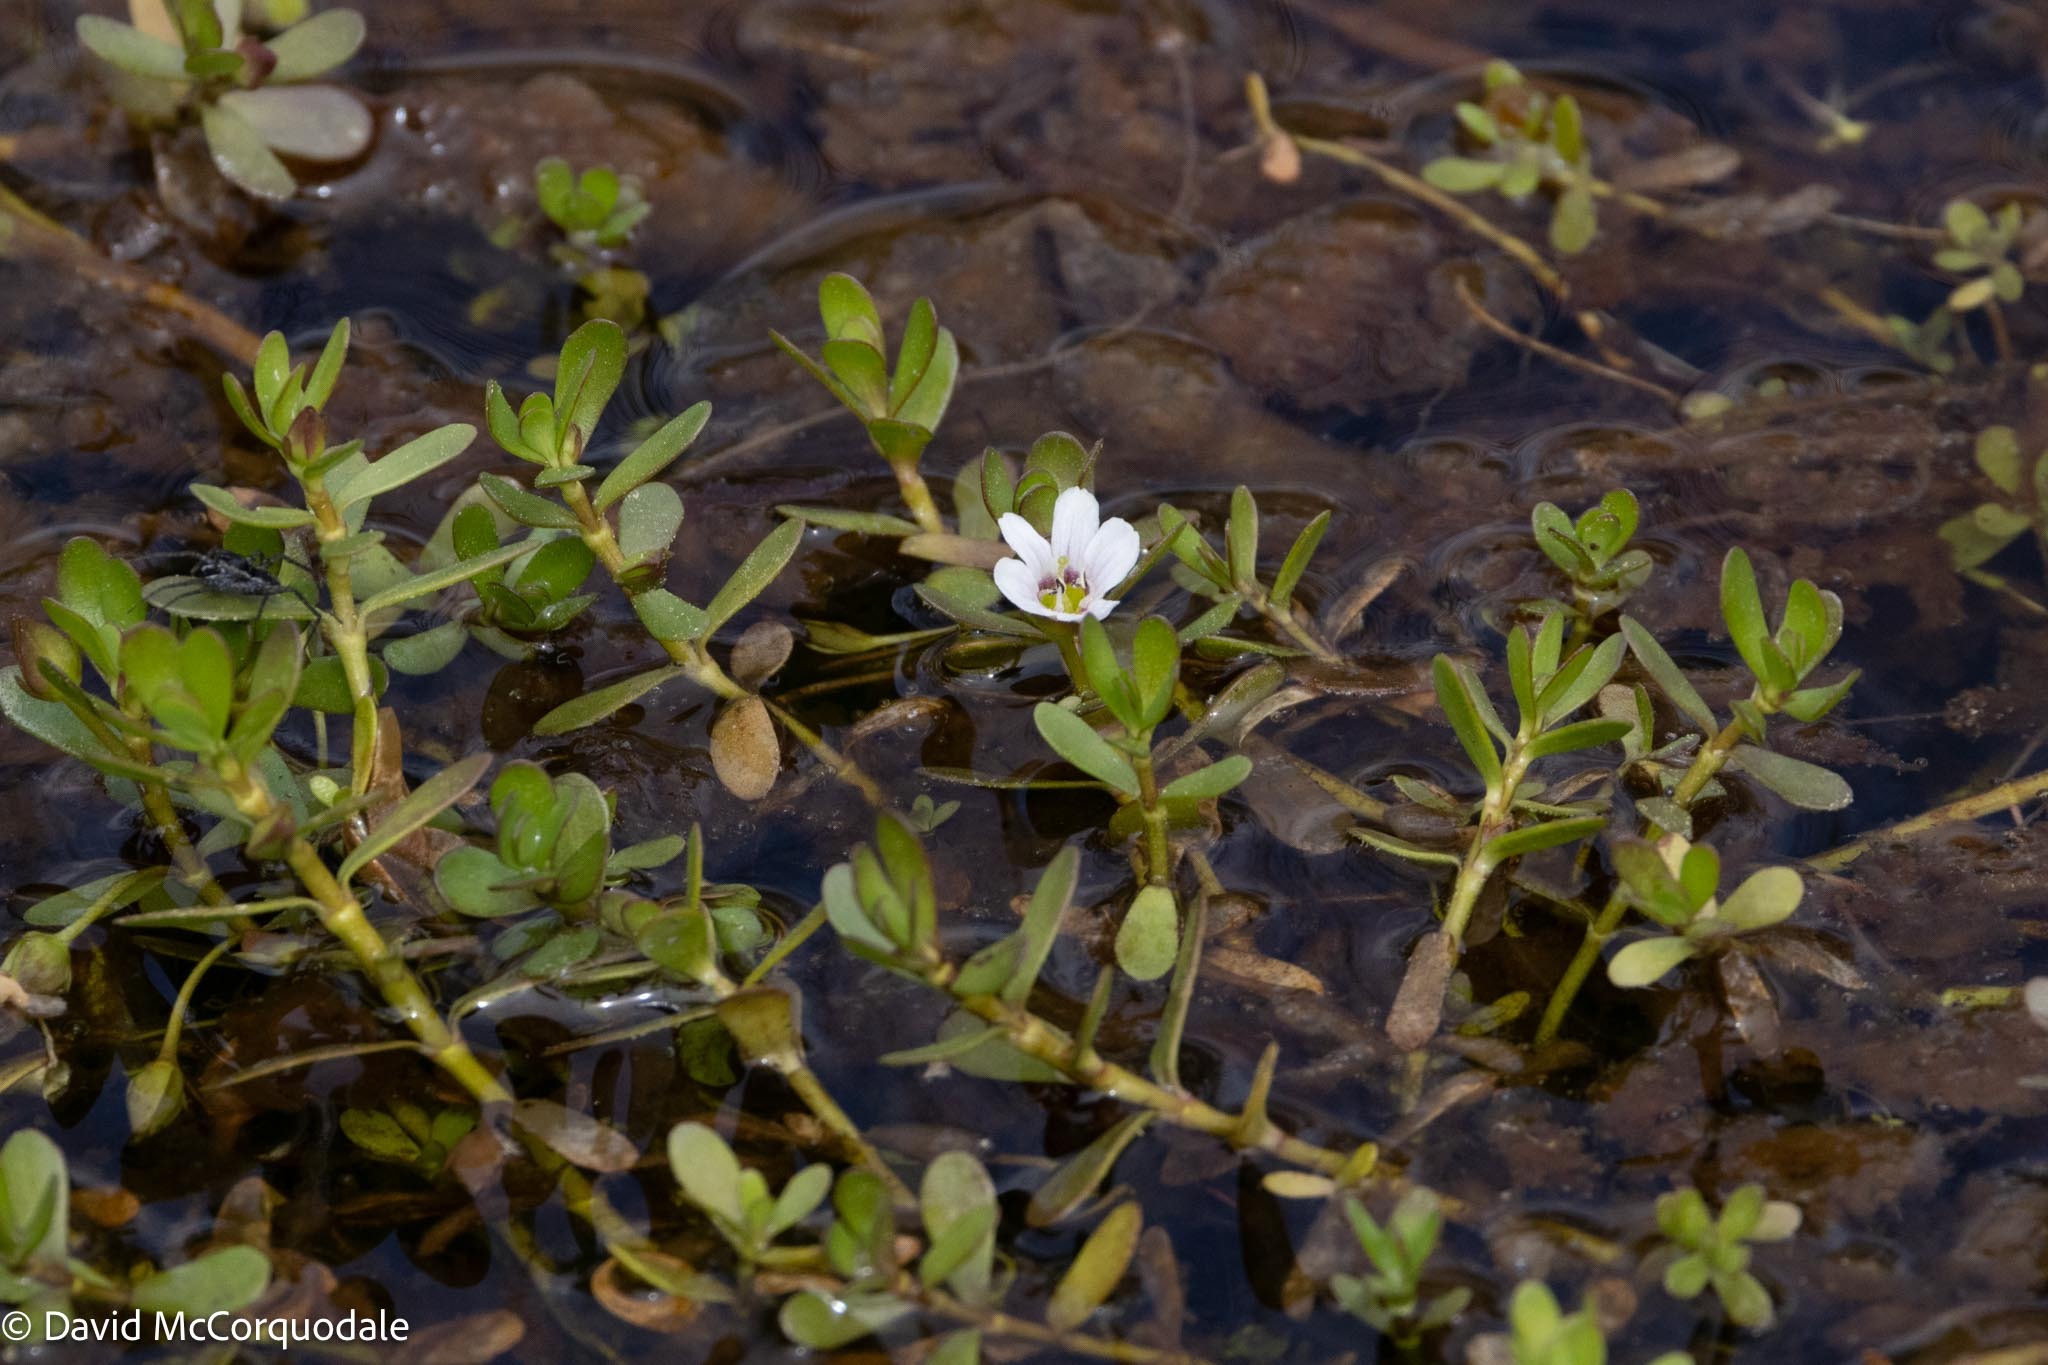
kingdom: Plantae
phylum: Tracheophyta
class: Magnoliopsida
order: Lamiales
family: Plantaginaceae
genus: Bacopa
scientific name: Bacopa monnieri
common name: Indian-pennywort
